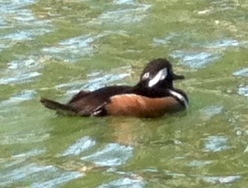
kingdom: Animalia
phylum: Chordata
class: Aves
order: Anseriformes
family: Anatidae
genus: Lophodytes
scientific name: Lophodytes cucullatus
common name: Hooded merganser
